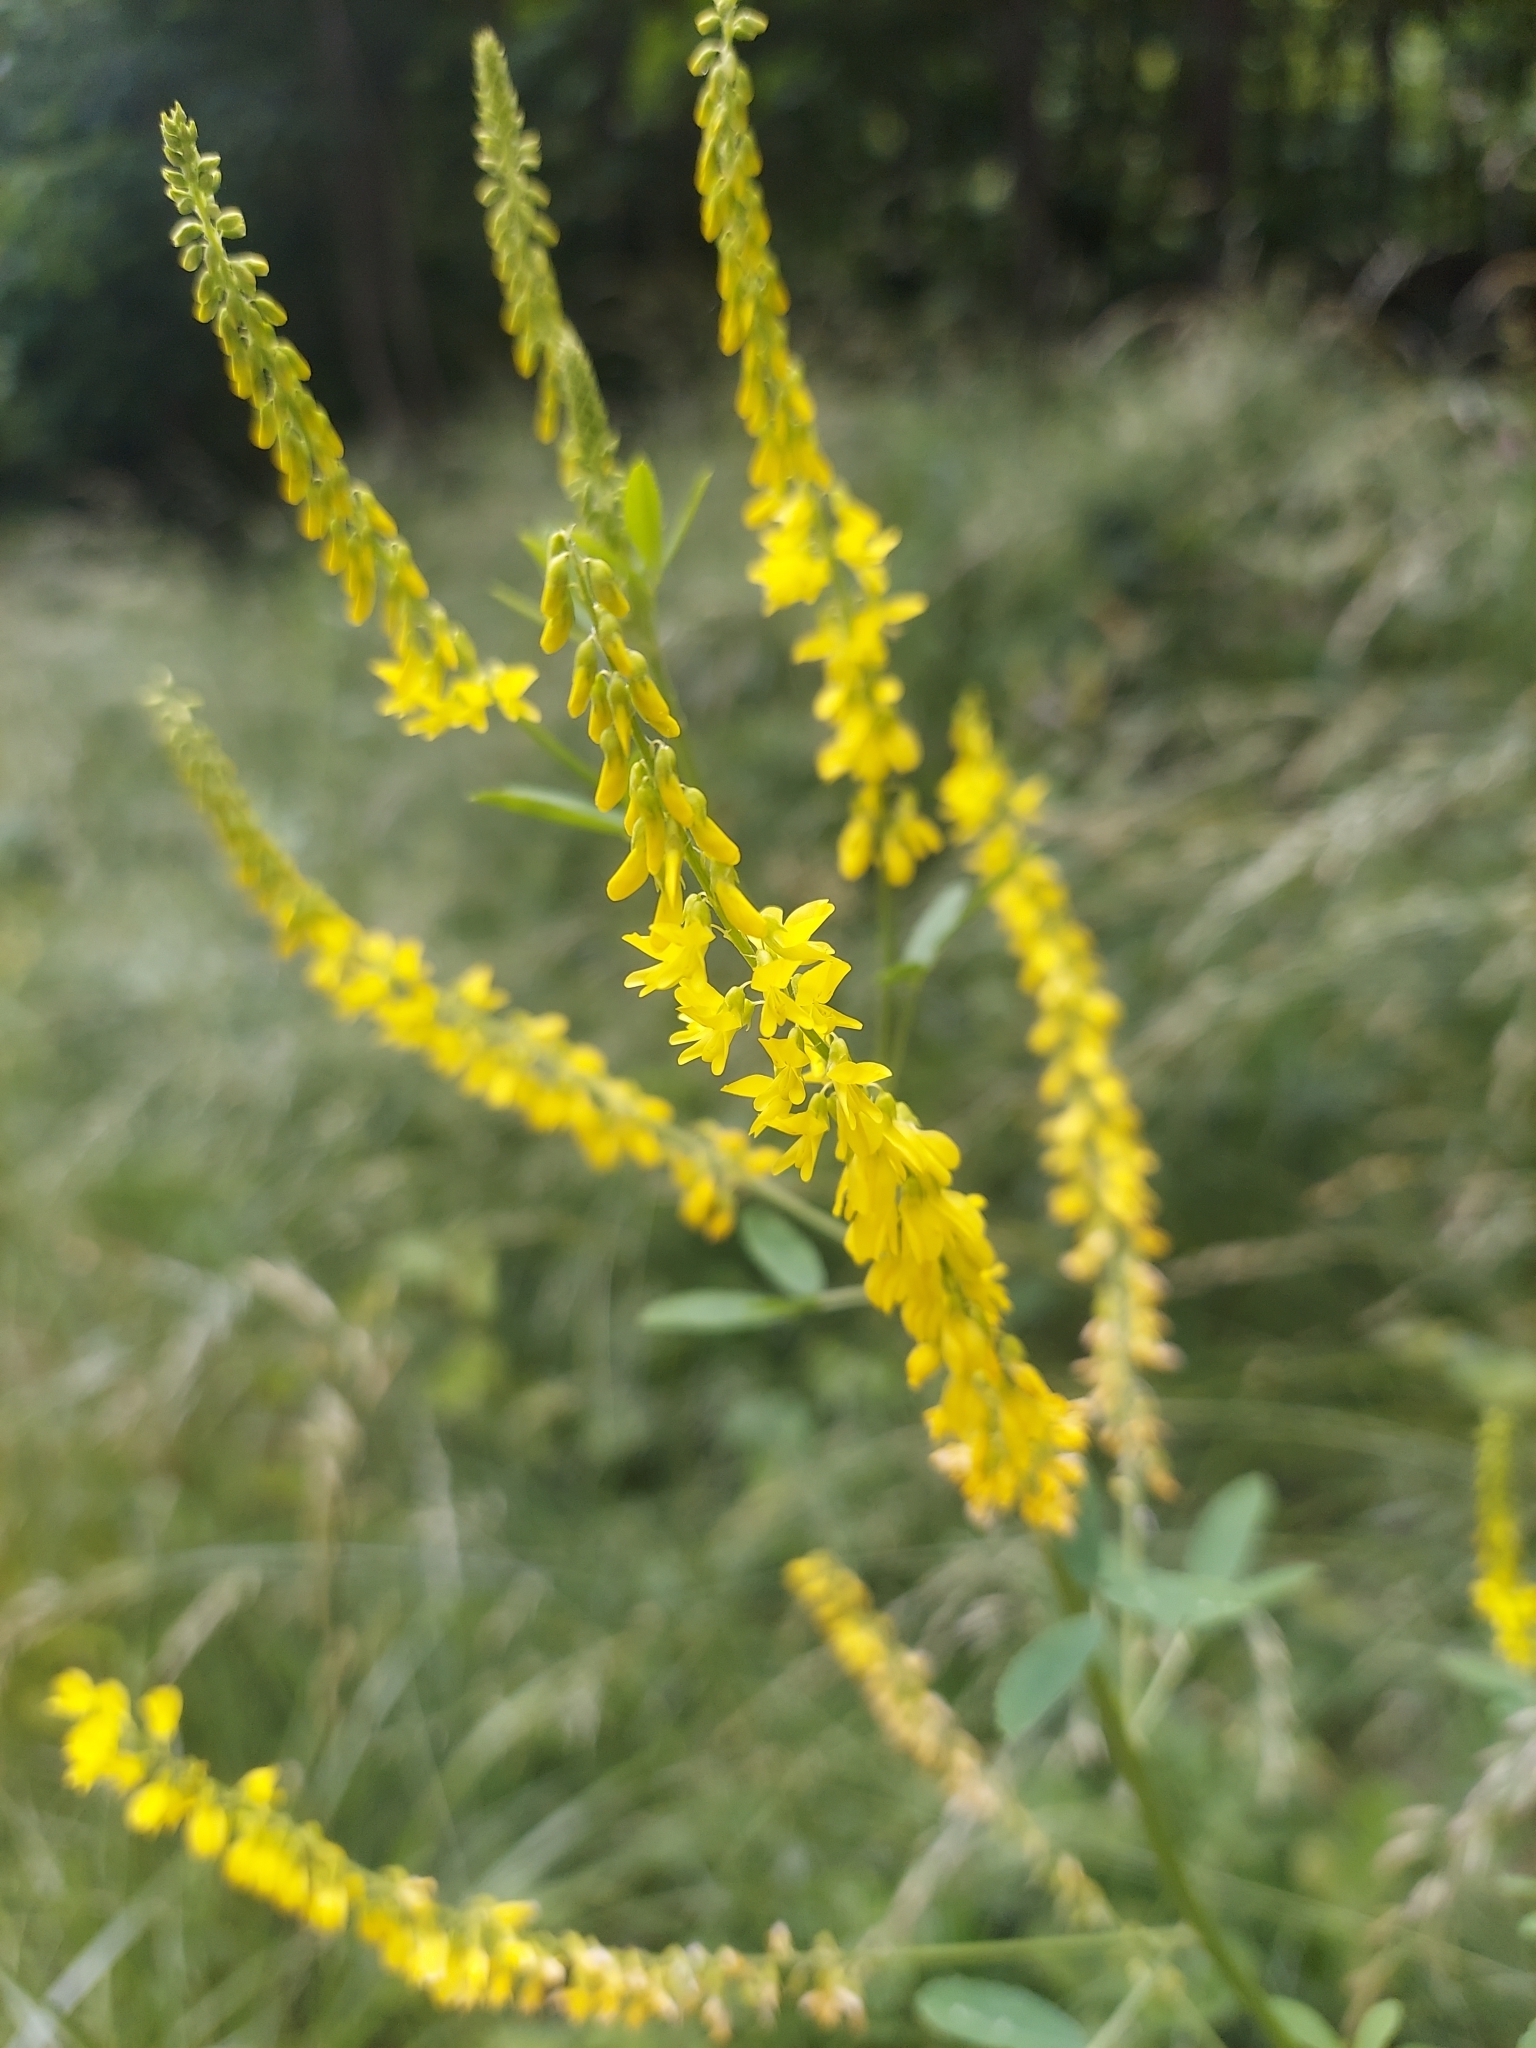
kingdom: Plantae
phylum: Tracheophyta
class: Magnoliopsida
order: Fabales
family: Fabaceae
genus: Melilotus
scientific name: Melilotus officinalis
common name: Sweetclover
